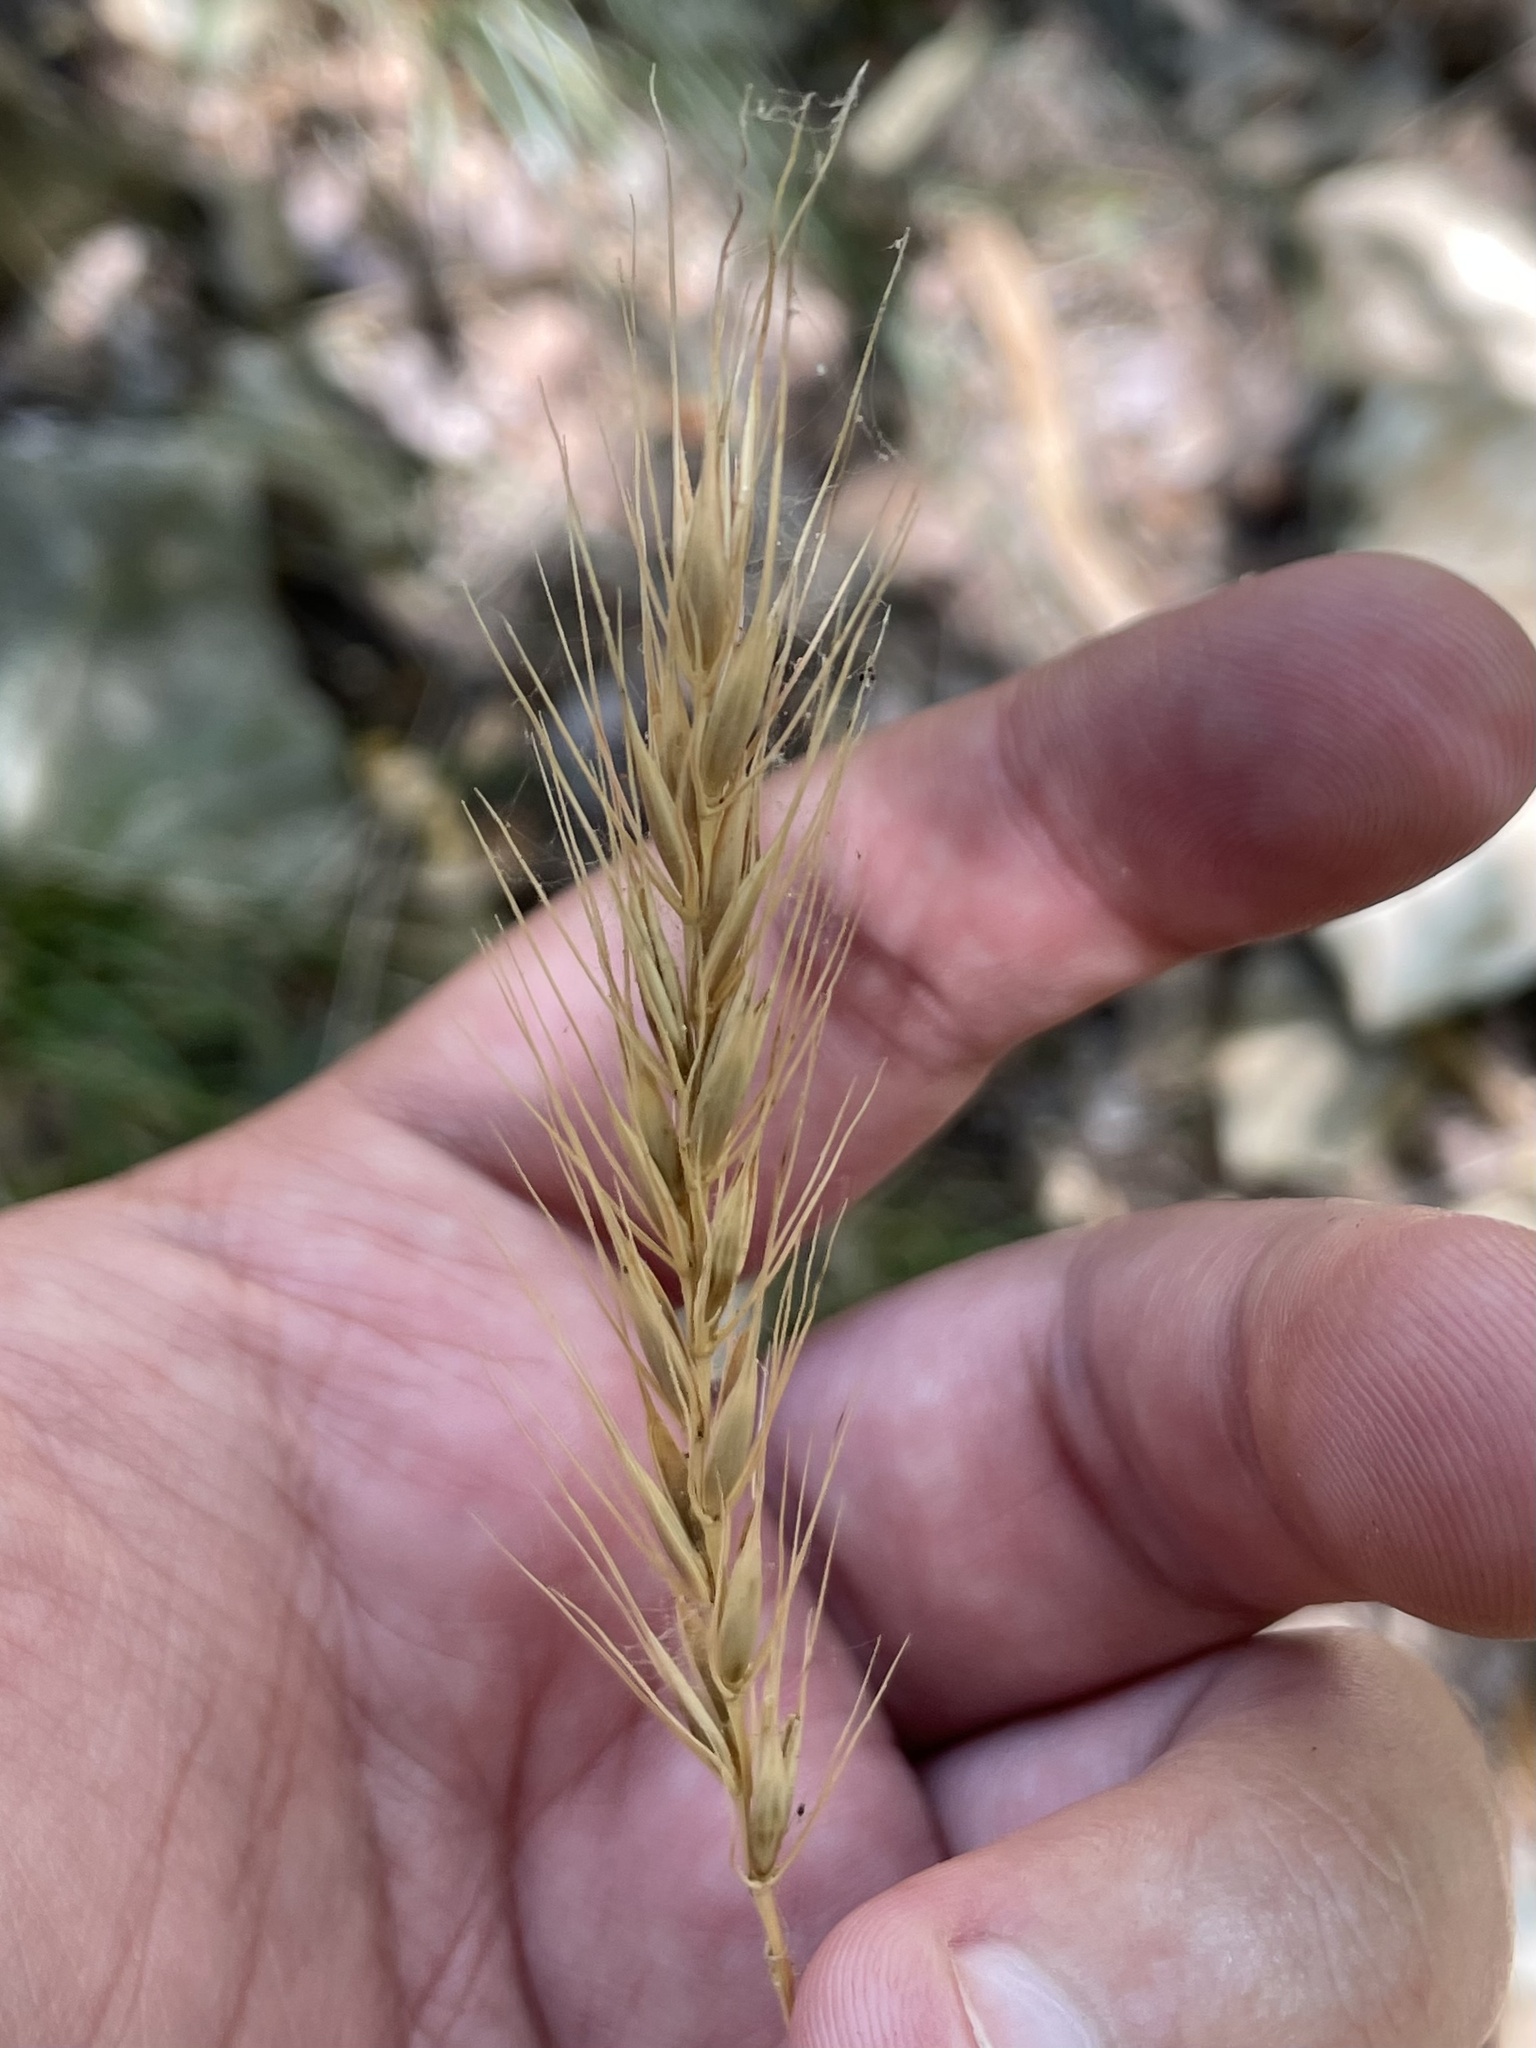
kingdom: Plantae
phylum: Tracheophyta
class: Liliopsida
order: Poales
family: Poaceae
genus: Elymus
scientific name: Elymus virginicus
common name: Common eastern wildrye
